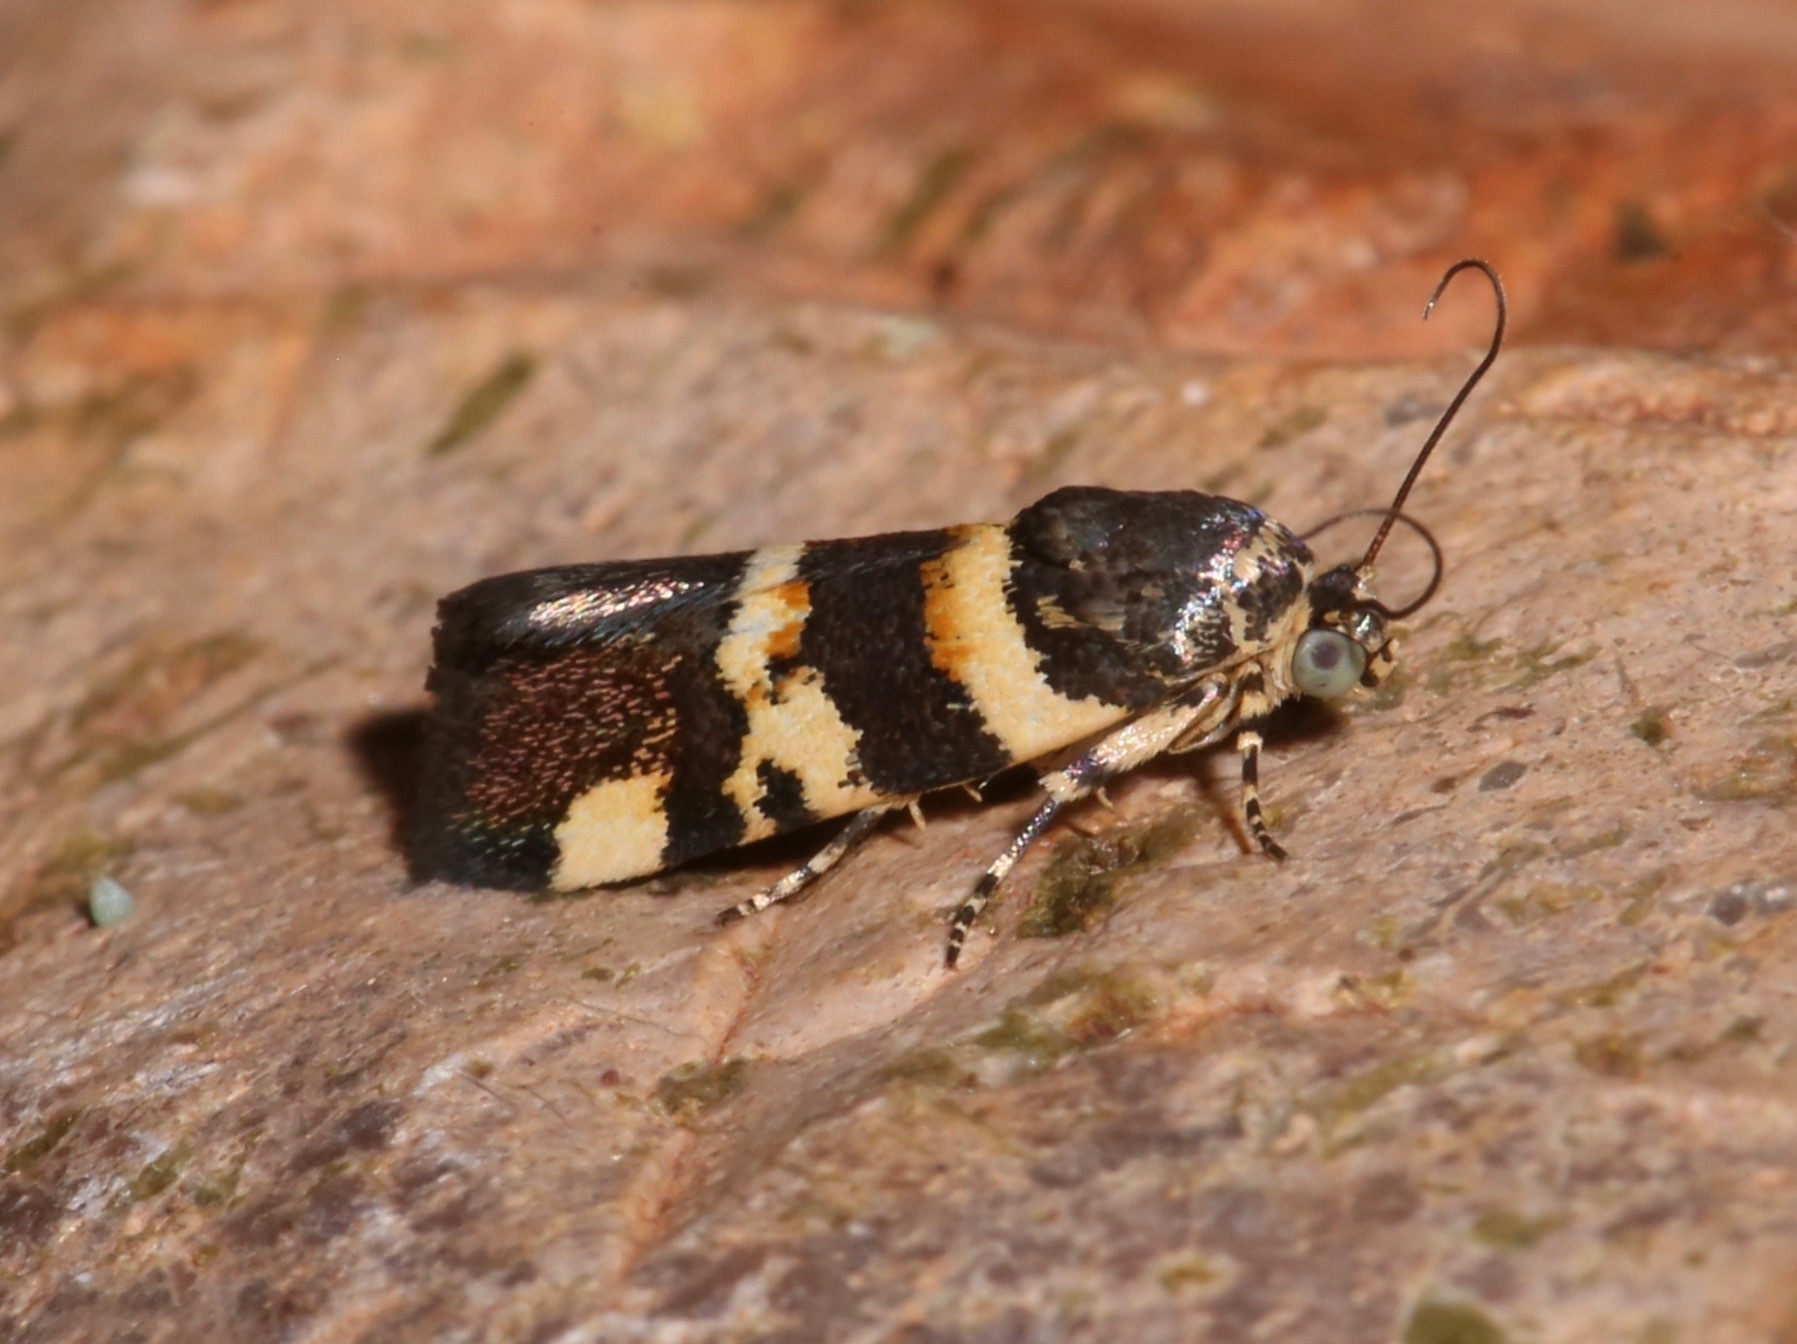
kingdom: Animalia
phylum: Arthropoda
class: Insecta
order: Lepidoptera
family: Noctuidae
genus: Spragueia
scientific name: Spragueia funeralis
